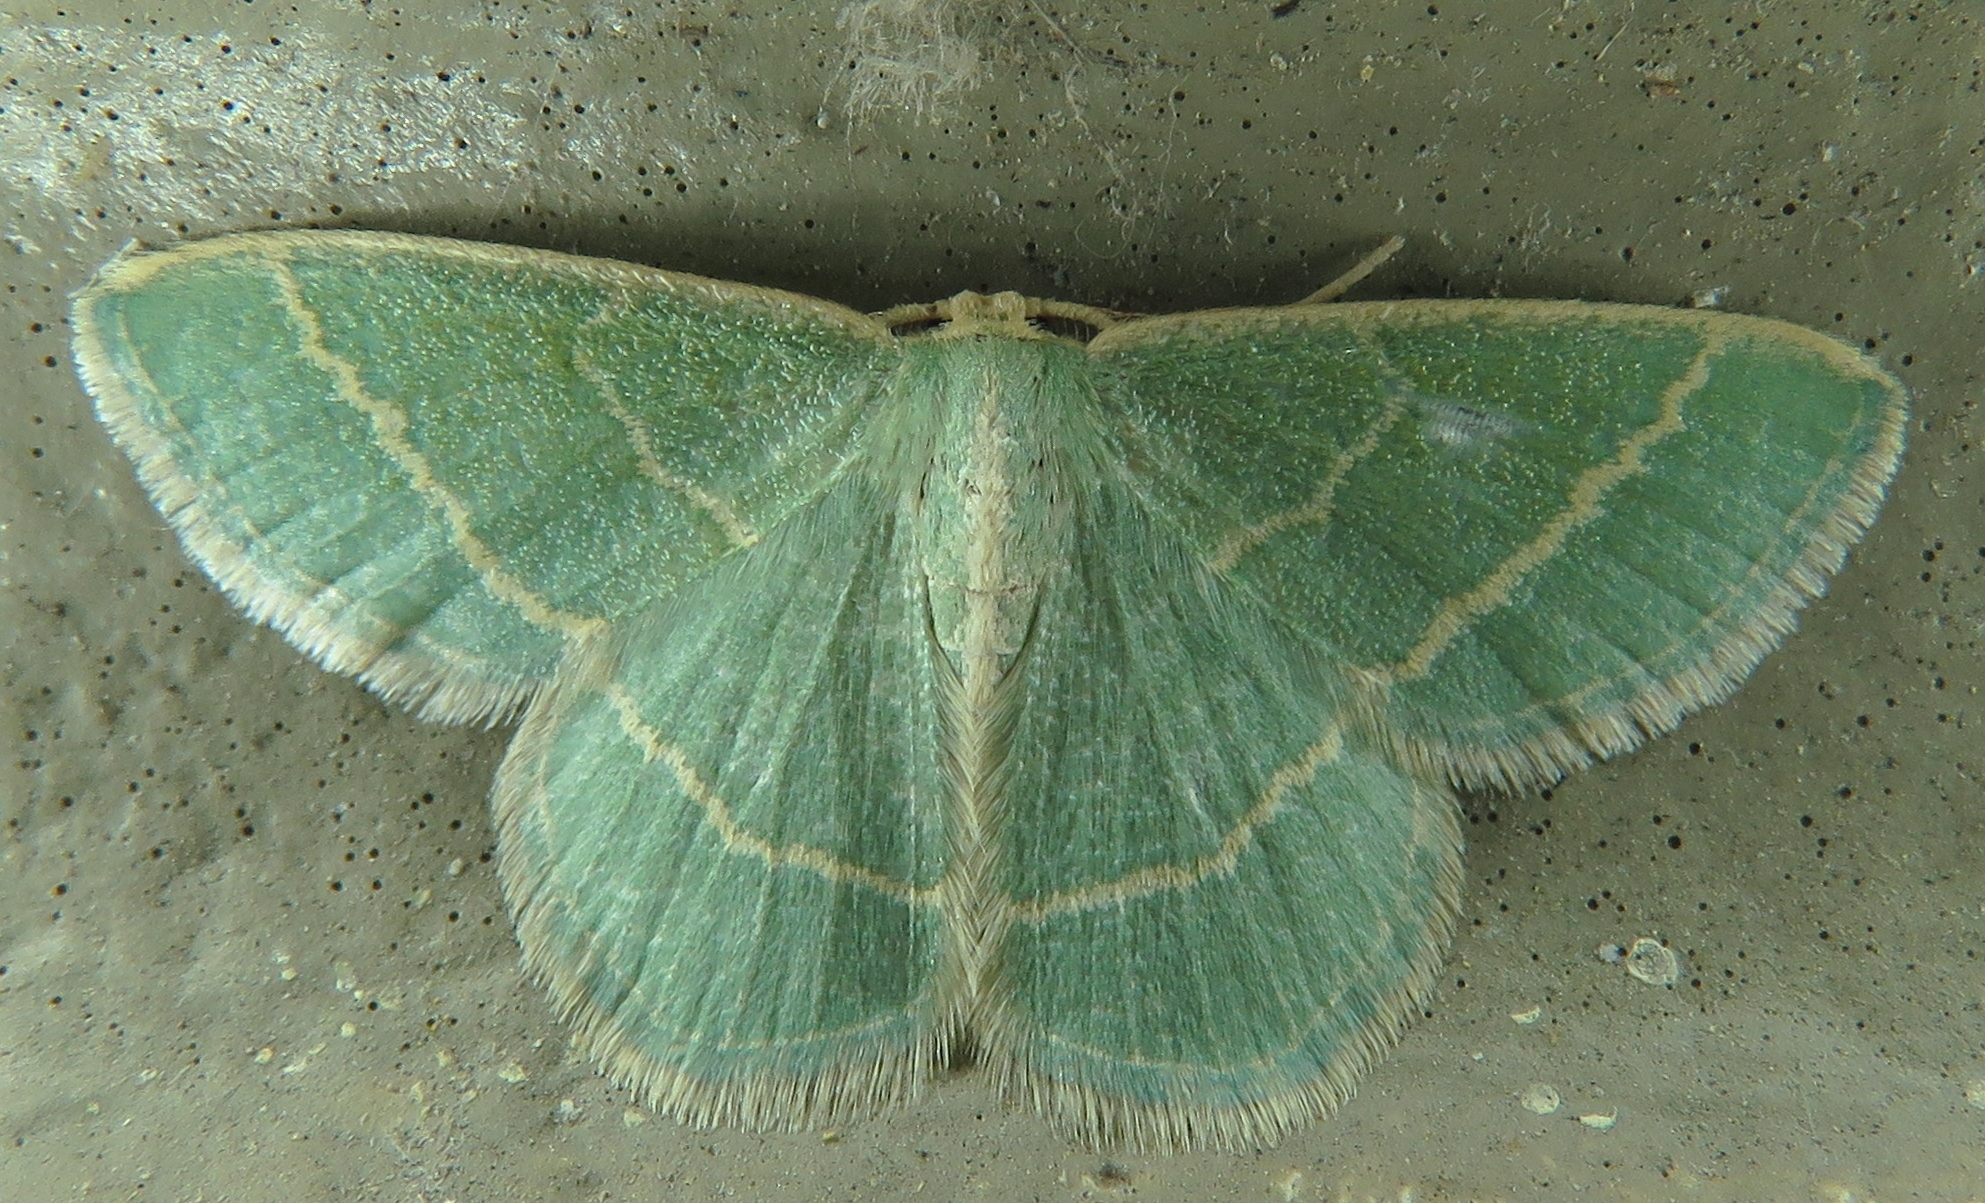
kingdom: Animalia
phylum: Arthropoda
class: Insecta
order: Lepidoptera
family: Geometridae
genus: Chlorochlamys
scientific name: Chlorochlamys chloroleucaria
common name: Blackberry looper
